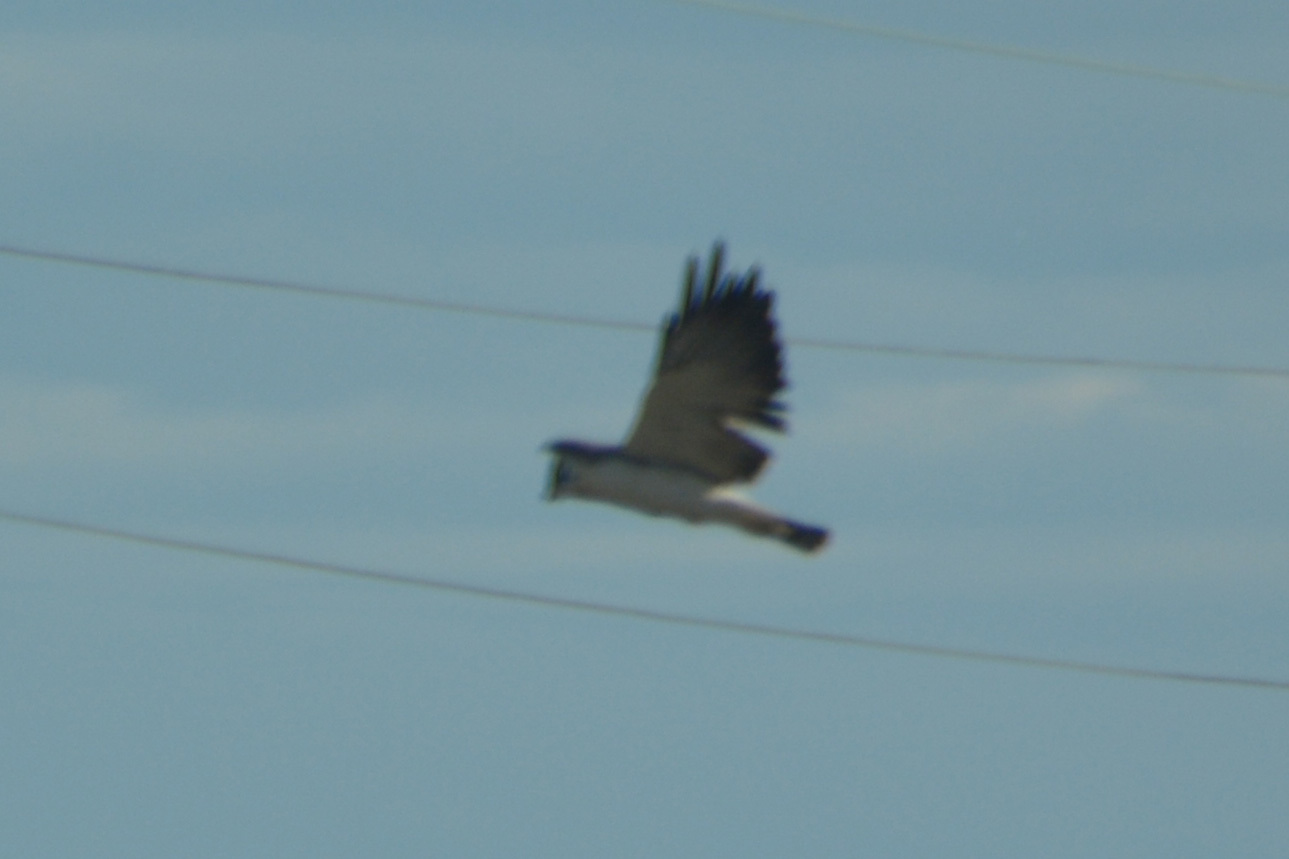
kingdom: Animalia
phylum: Chordata
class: Aves
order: Accipitriformes
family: Accipitridae
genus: Buteo
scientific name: Buteo polyosoma
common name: Variable hawk
